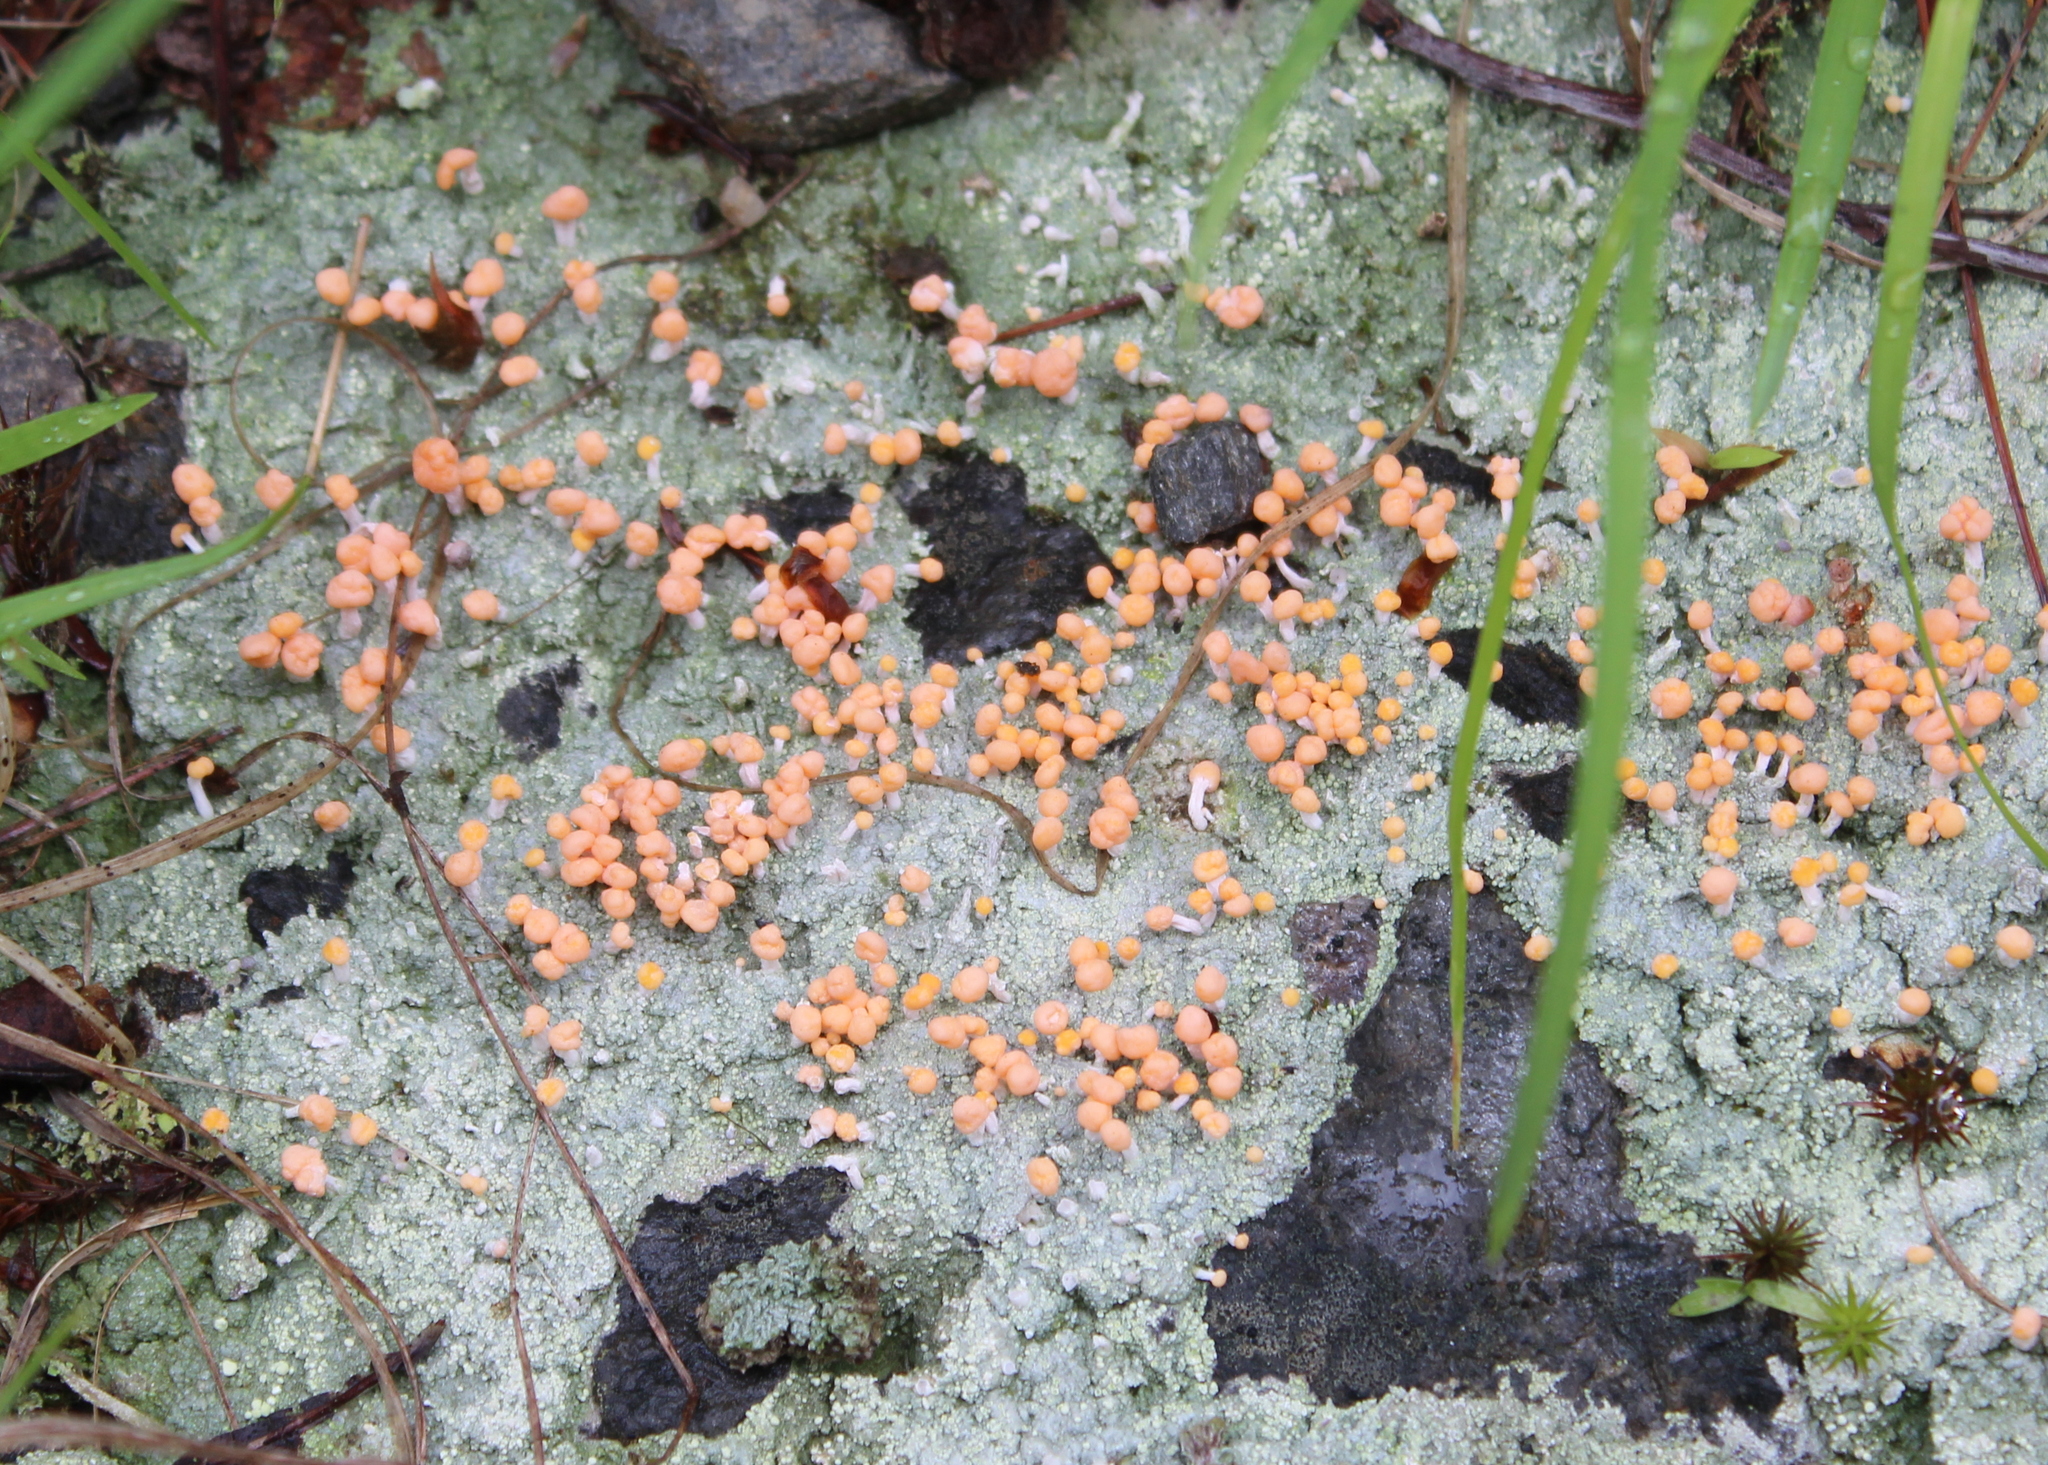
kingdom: Fungi
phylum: Ascomycota
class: Lecanoromycetes
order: Pertusariales
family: Icmadophilaceae
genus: Dibaeis
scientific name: Dibaeis baeomyces
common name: Pink earth lichen
